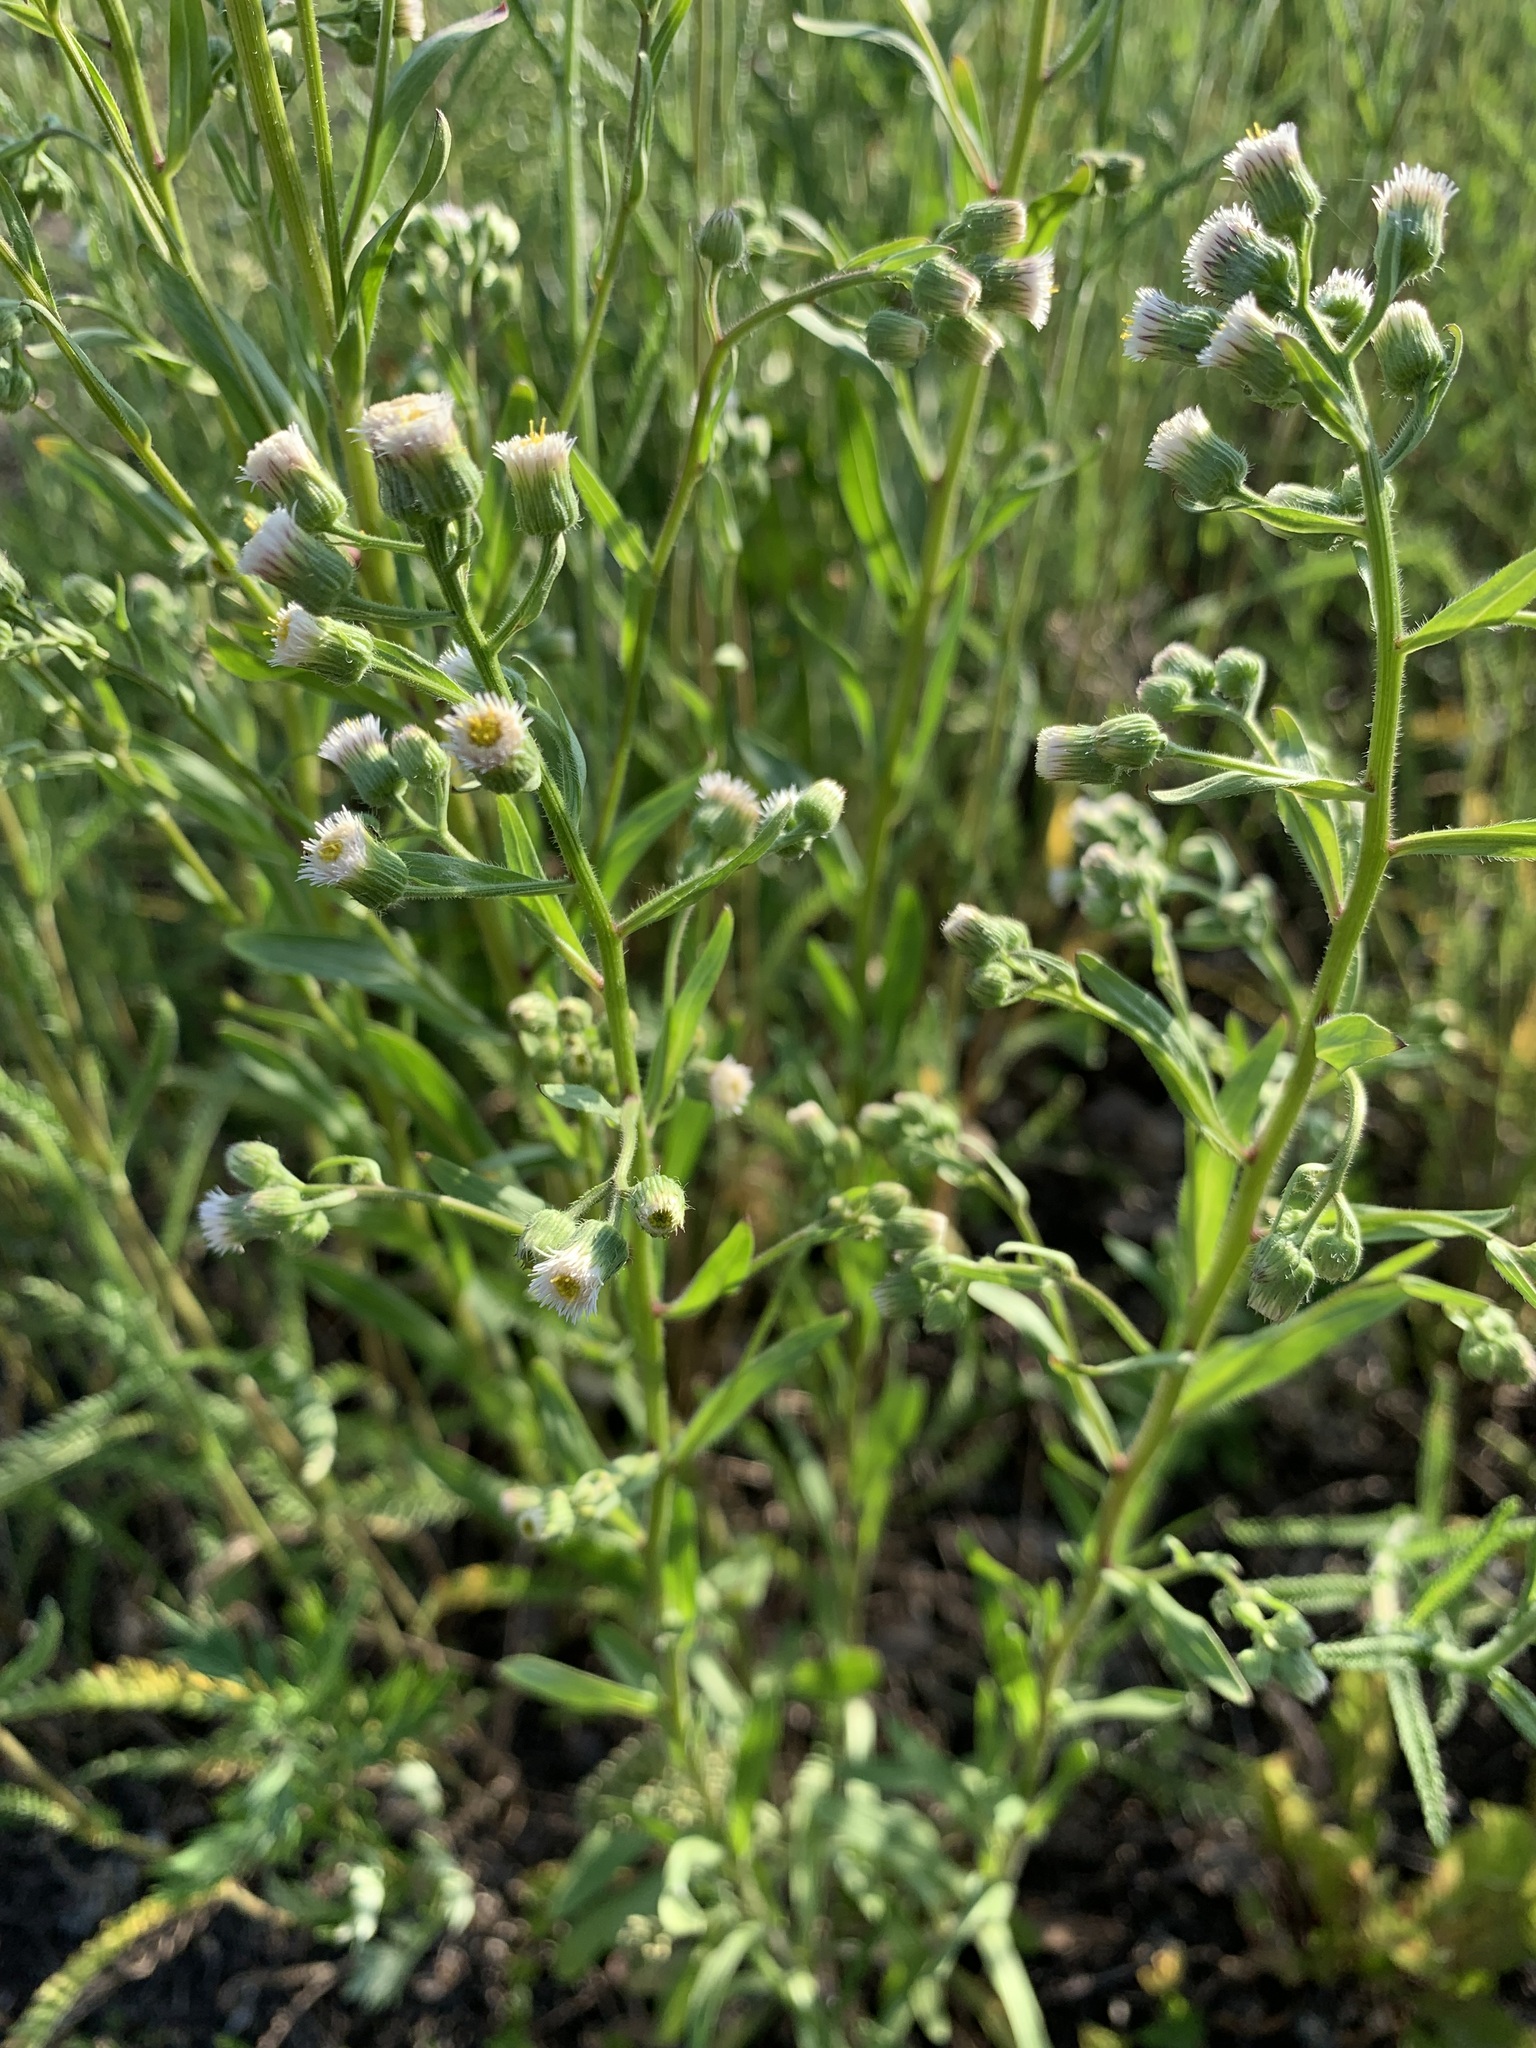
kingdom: Plantae
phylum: Tracheophyta
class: Magnoliopsida
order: Asterales
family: Asteraceae
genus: Erigeron
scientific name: Erigeron acris
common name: Blue fleabane
